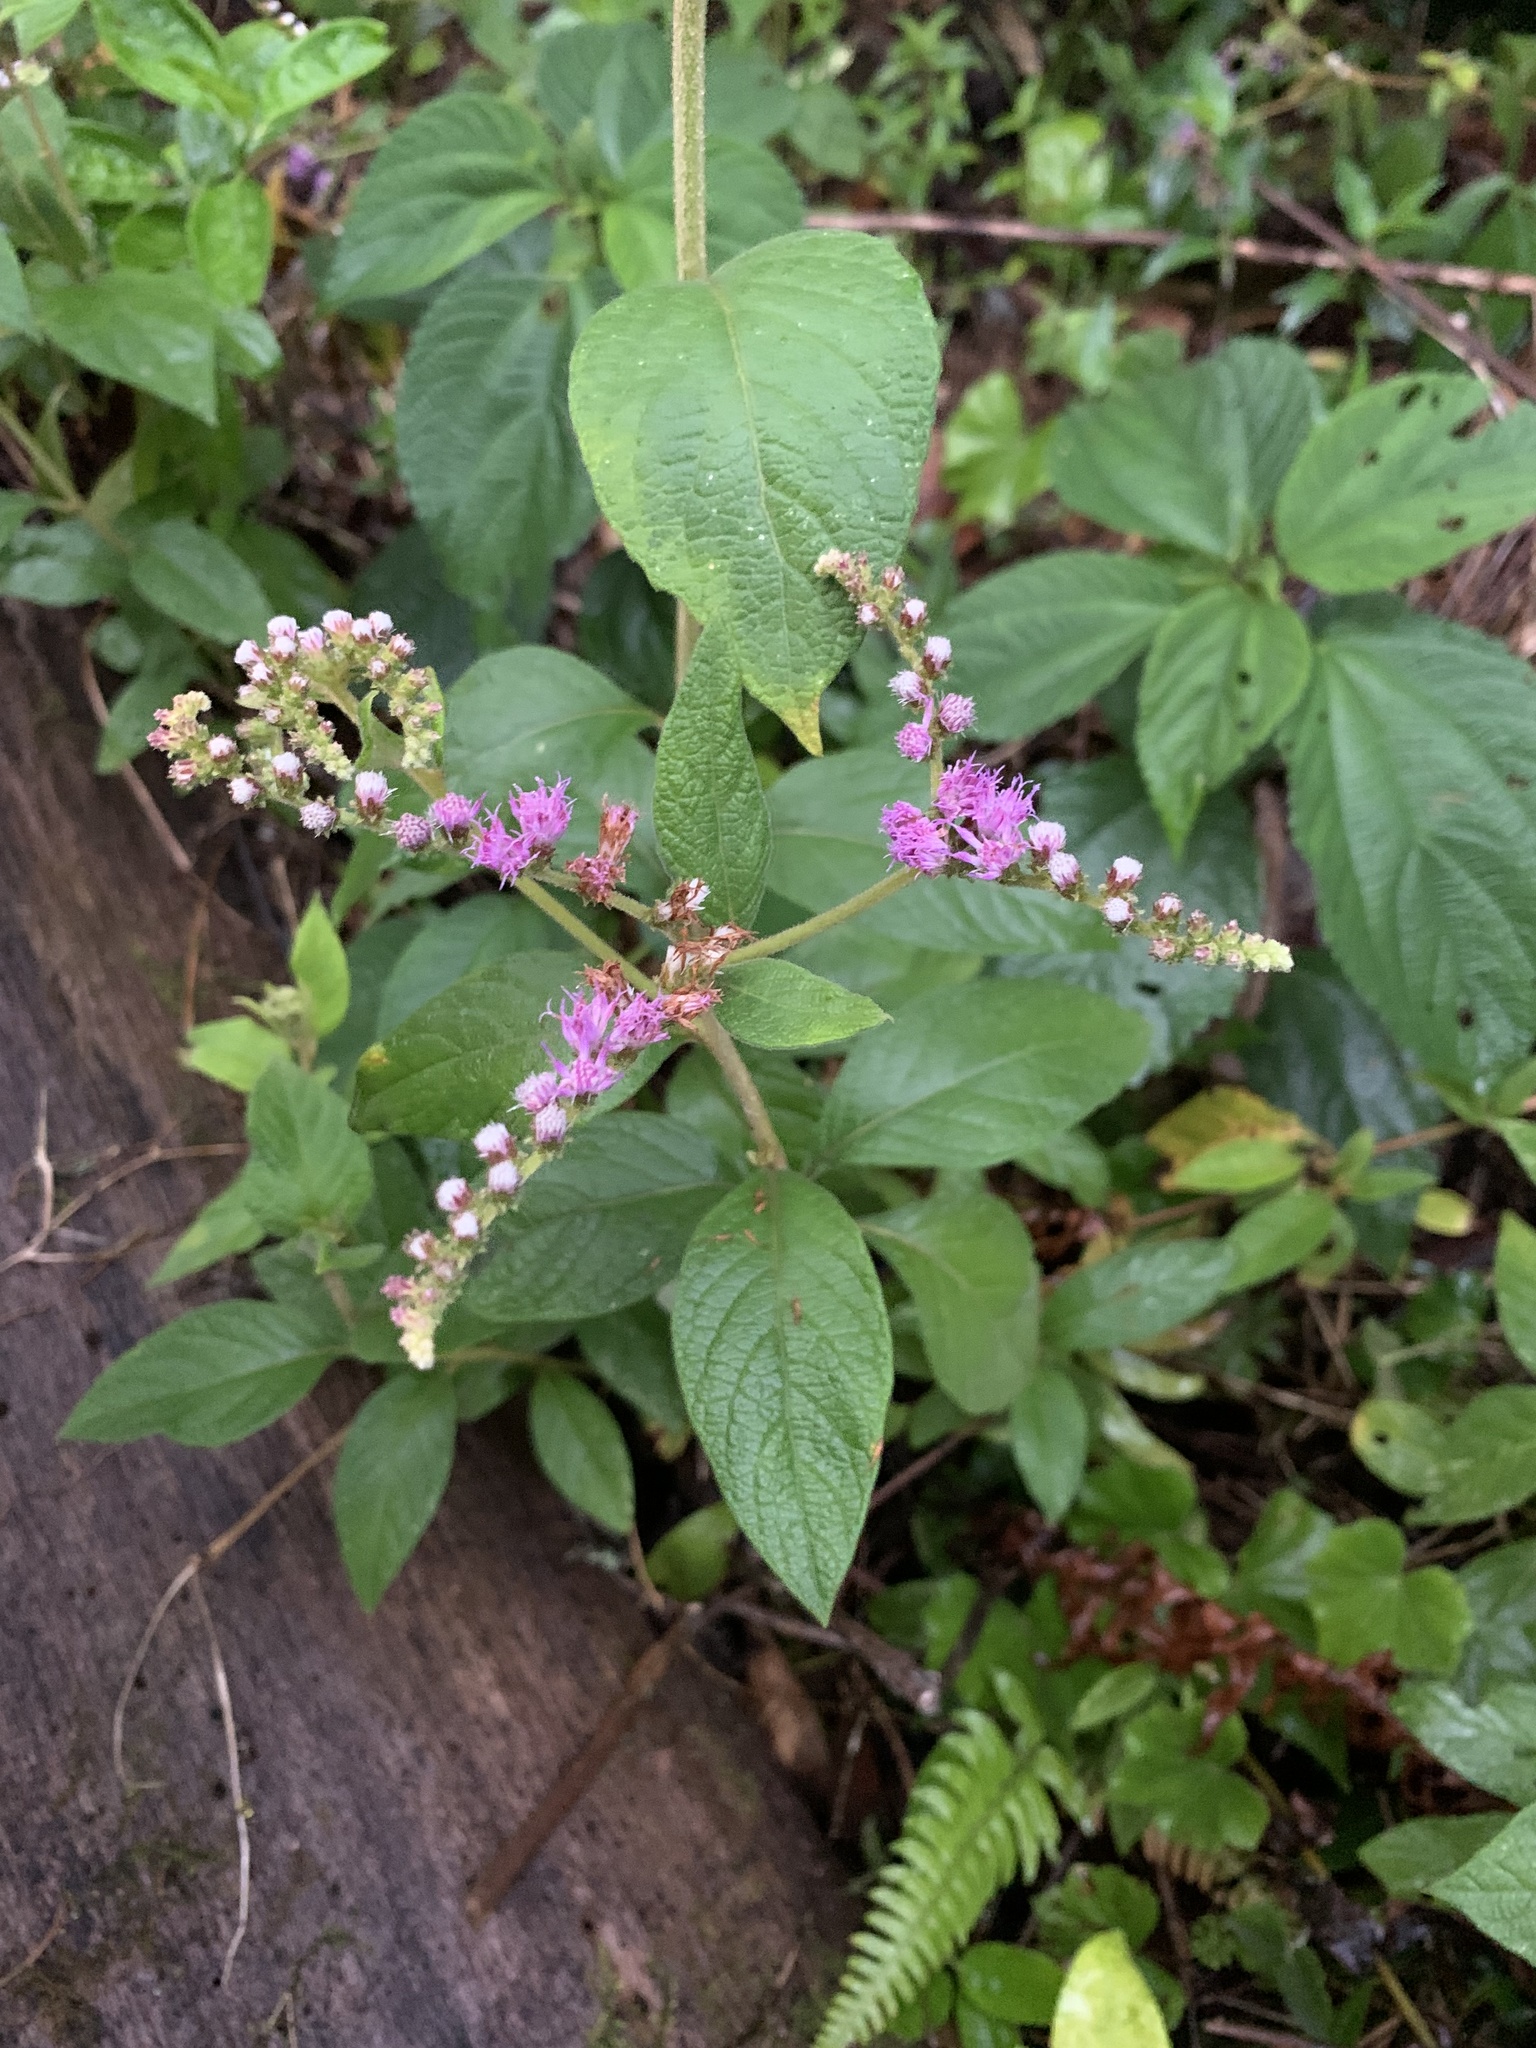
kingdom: Plantae
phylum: Tracheophyta
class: Magnoliopsida
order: Asterales
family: Asteraceae
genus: Cyrtocymura
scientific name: Cyrtocymura scorpioides
